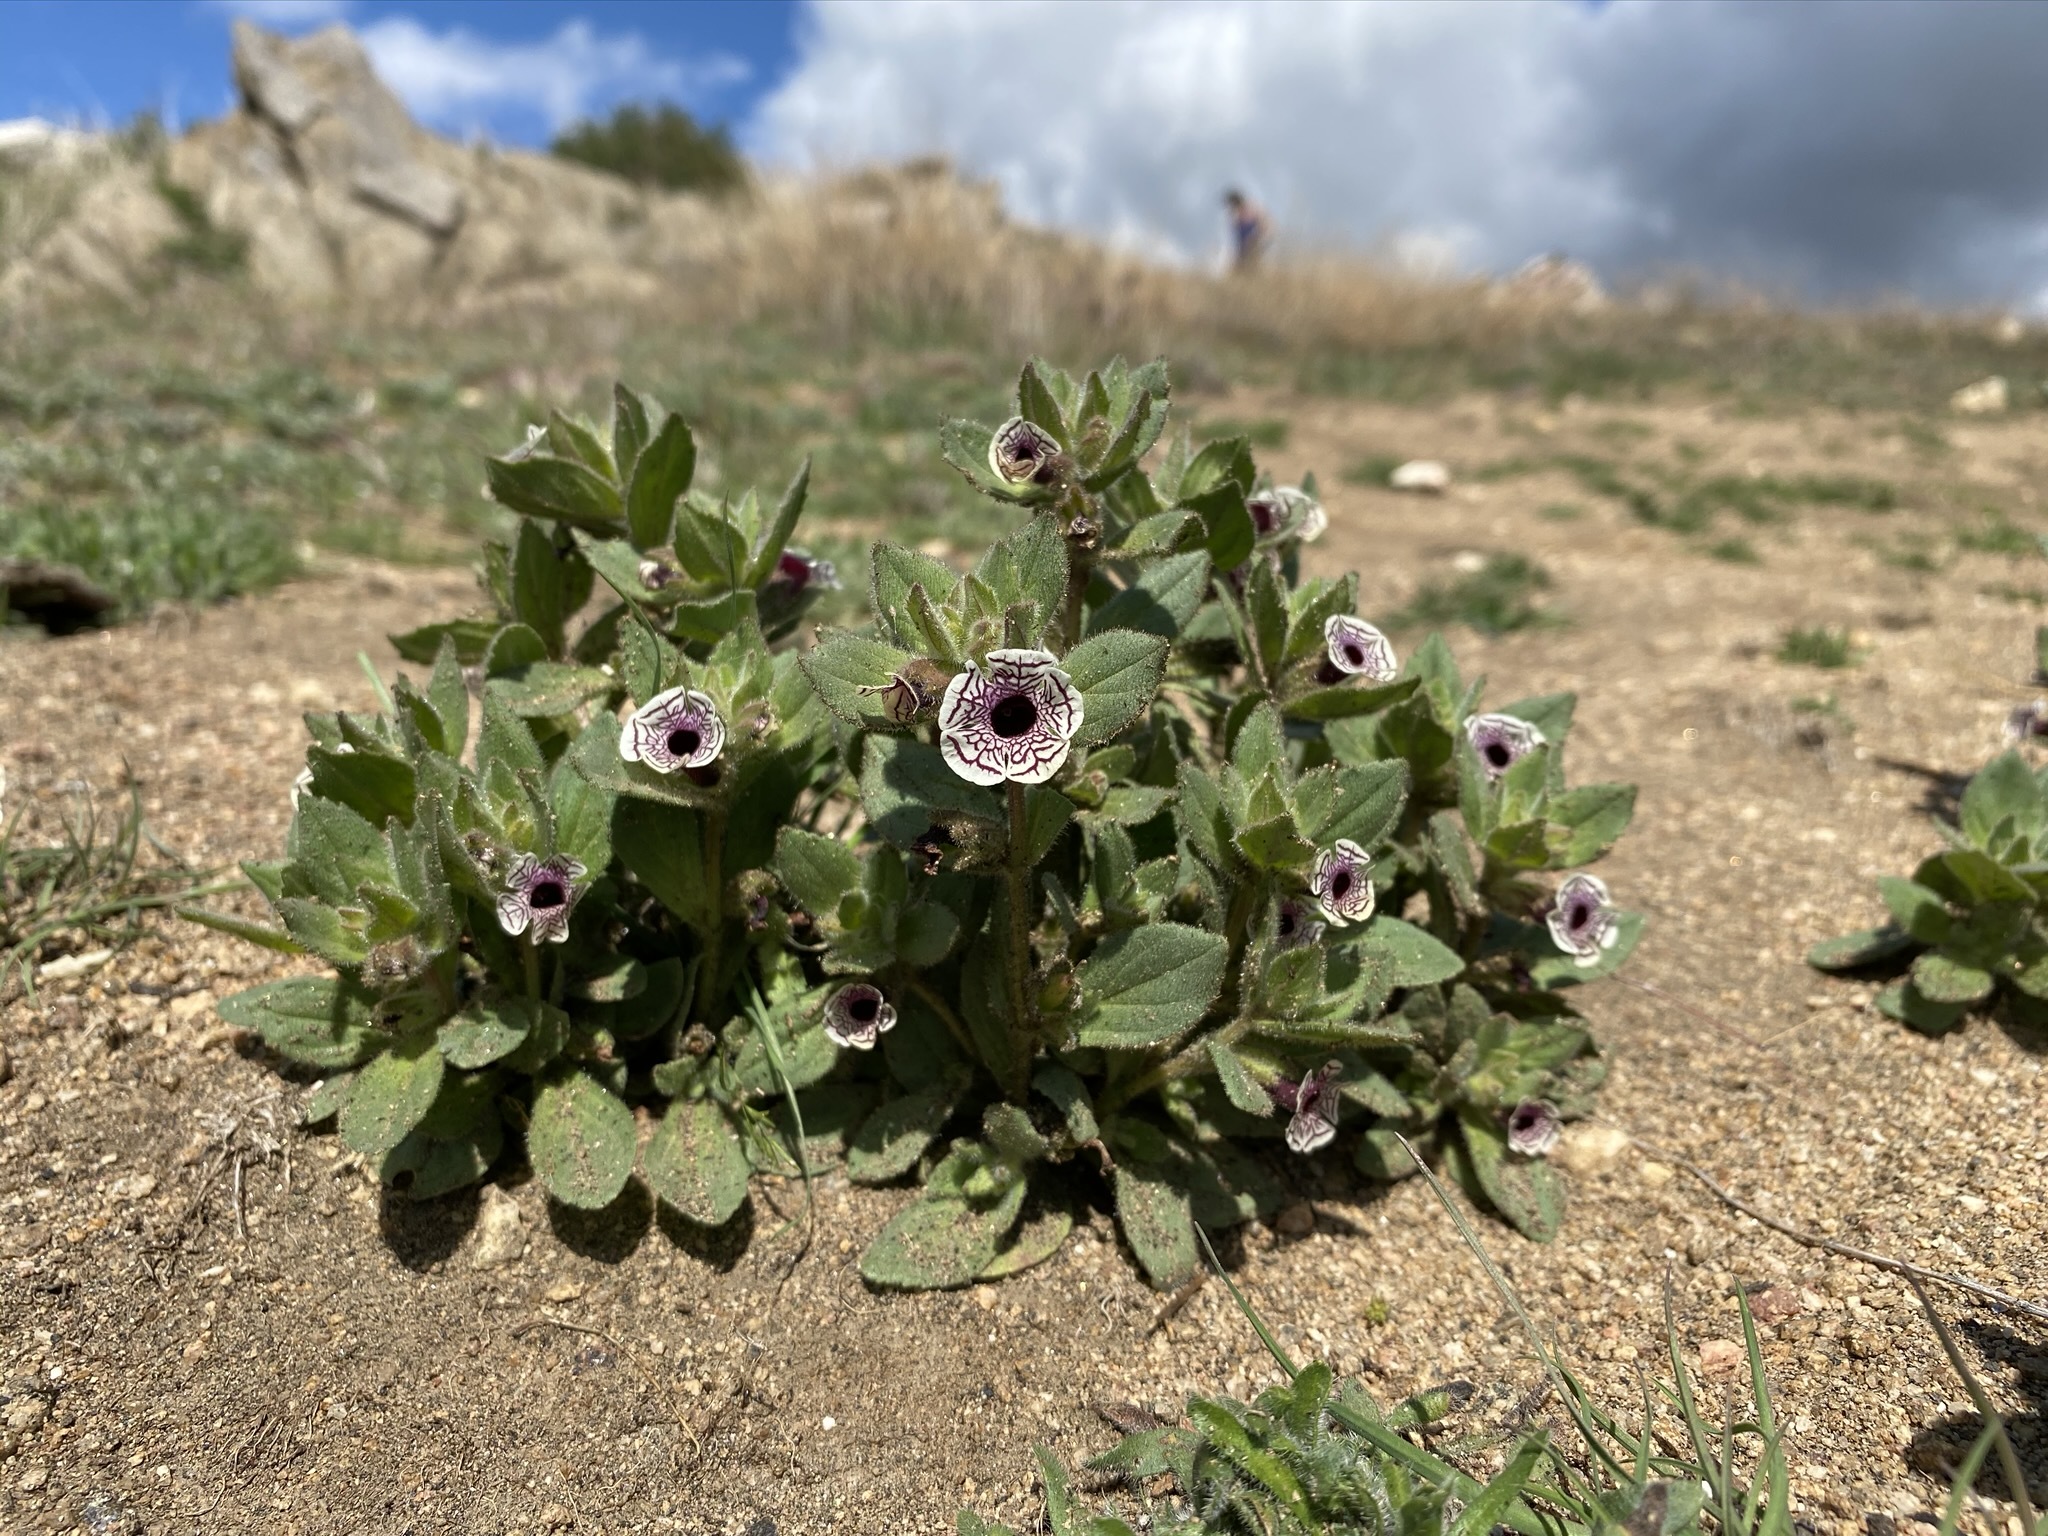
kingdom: Plantae
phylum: Tracheophyta
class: Magnoliopsida
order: Lamiales
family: Phrymaceae
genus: Diplacus
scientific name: Diplacus pictus
